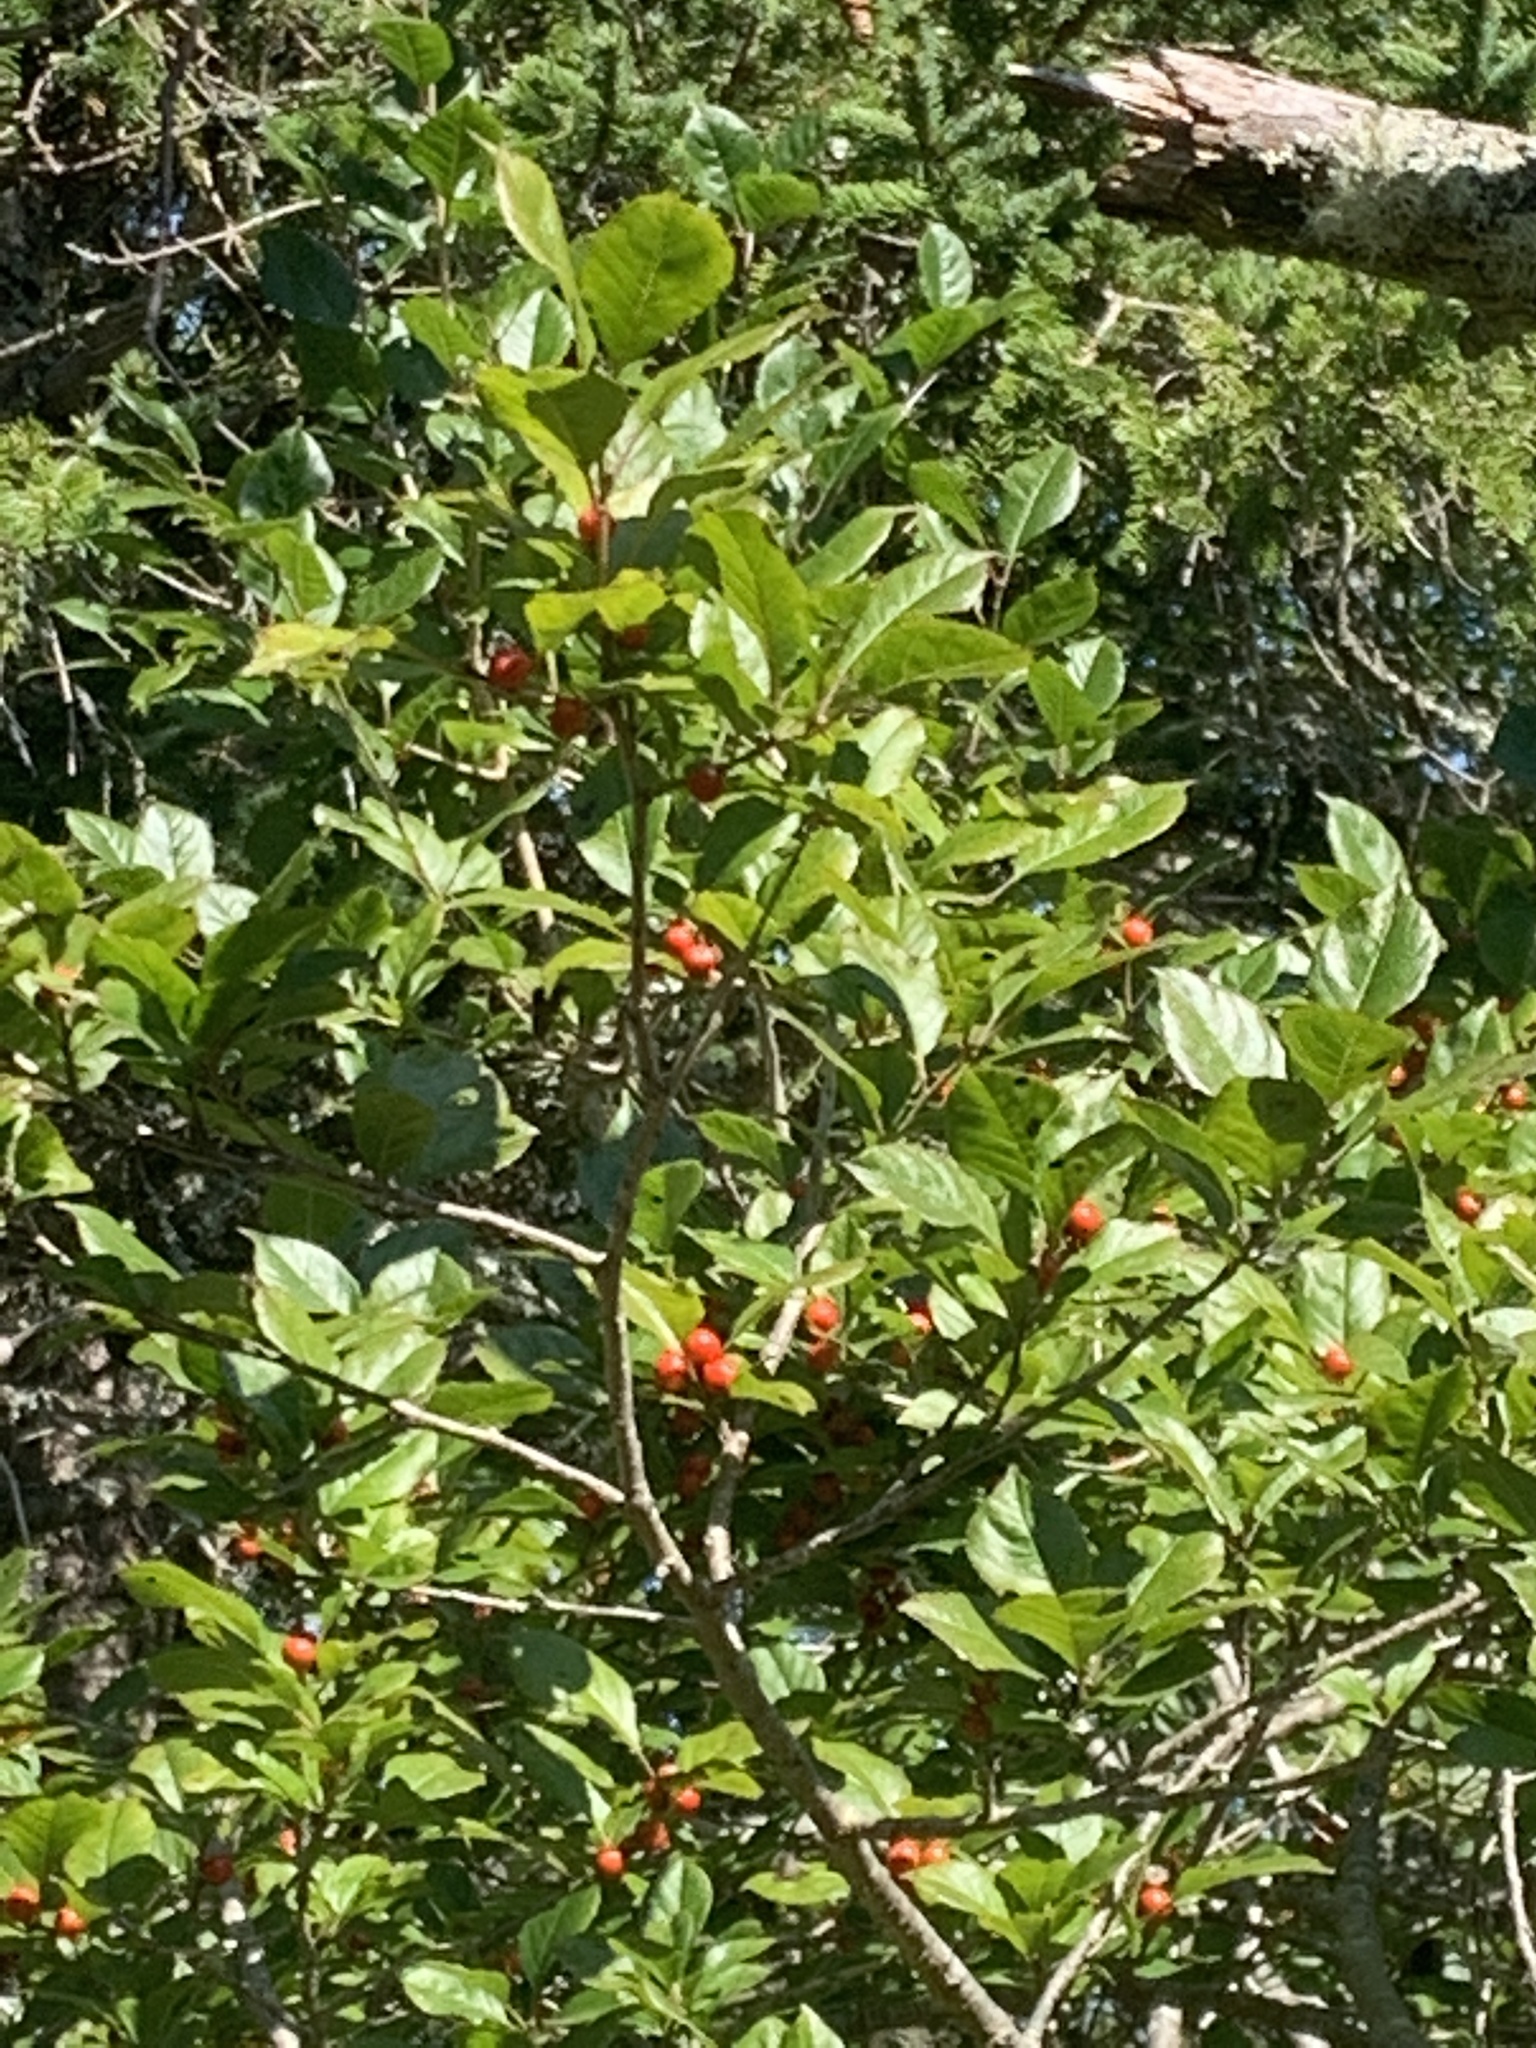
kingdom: Plantae
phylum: Tracheophyta
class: Magnoliopsida
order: Aquifoliales
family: Aquifoliaceae
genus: Ilex
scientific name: Ilex verticillata
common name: Virginia winterberry
